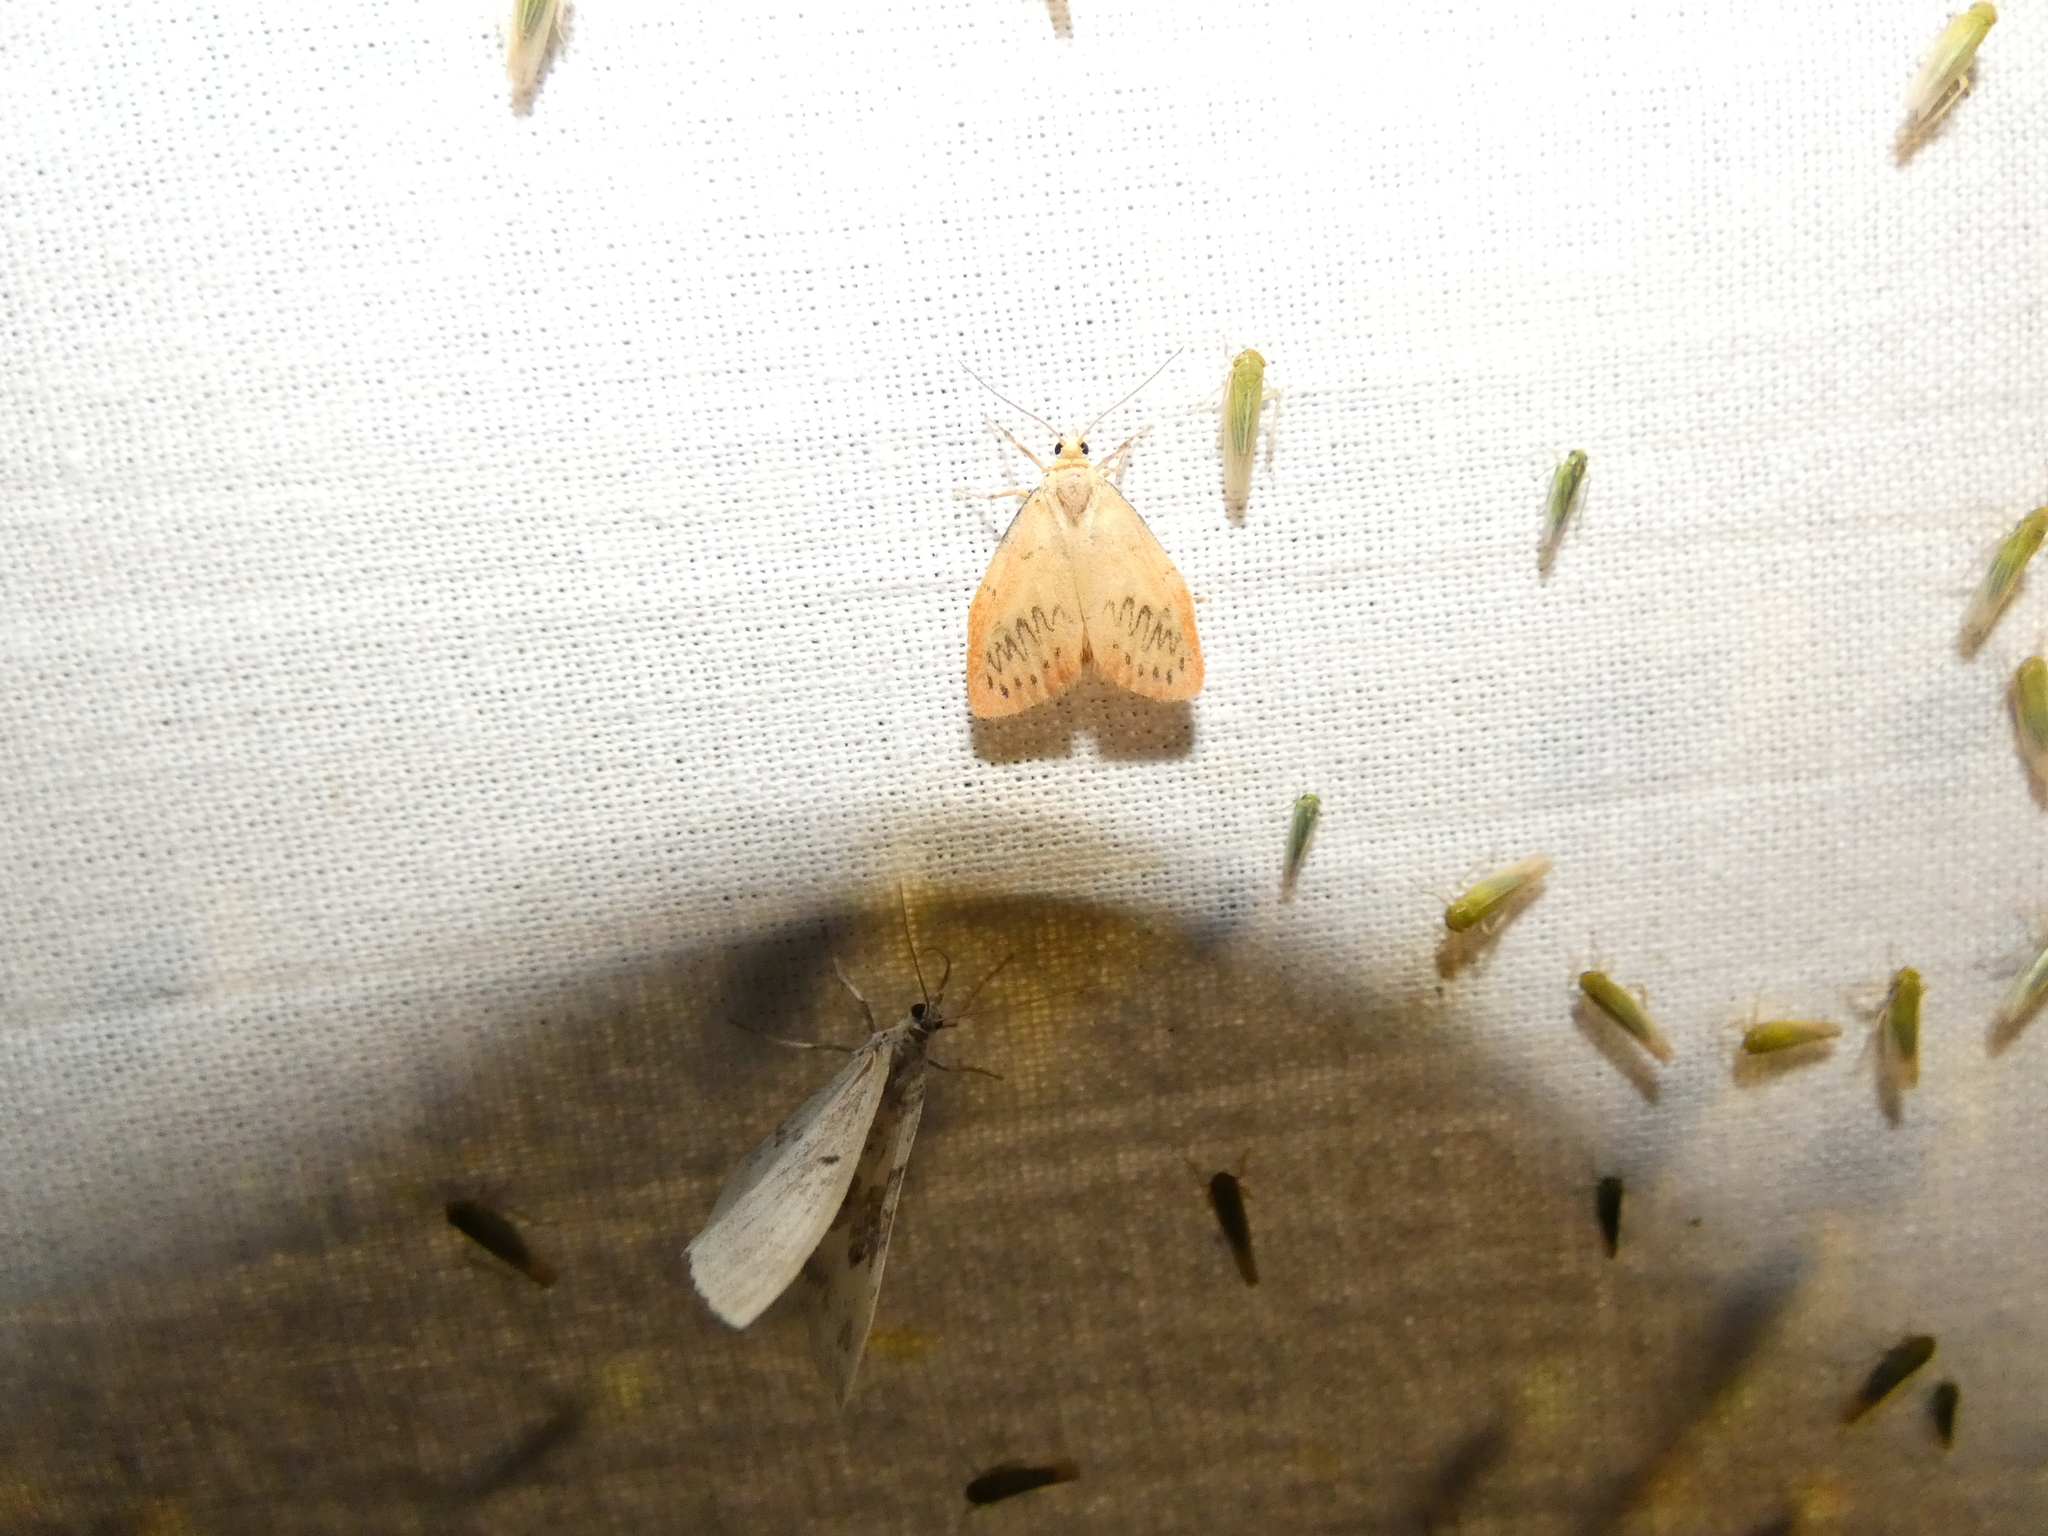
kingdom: Animalia
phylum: Arthropoda
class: Insecta
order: Lepidoptera
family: Erebidae
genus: Miltochrista
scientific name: Miltochrista miniata
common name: Rosy footman
